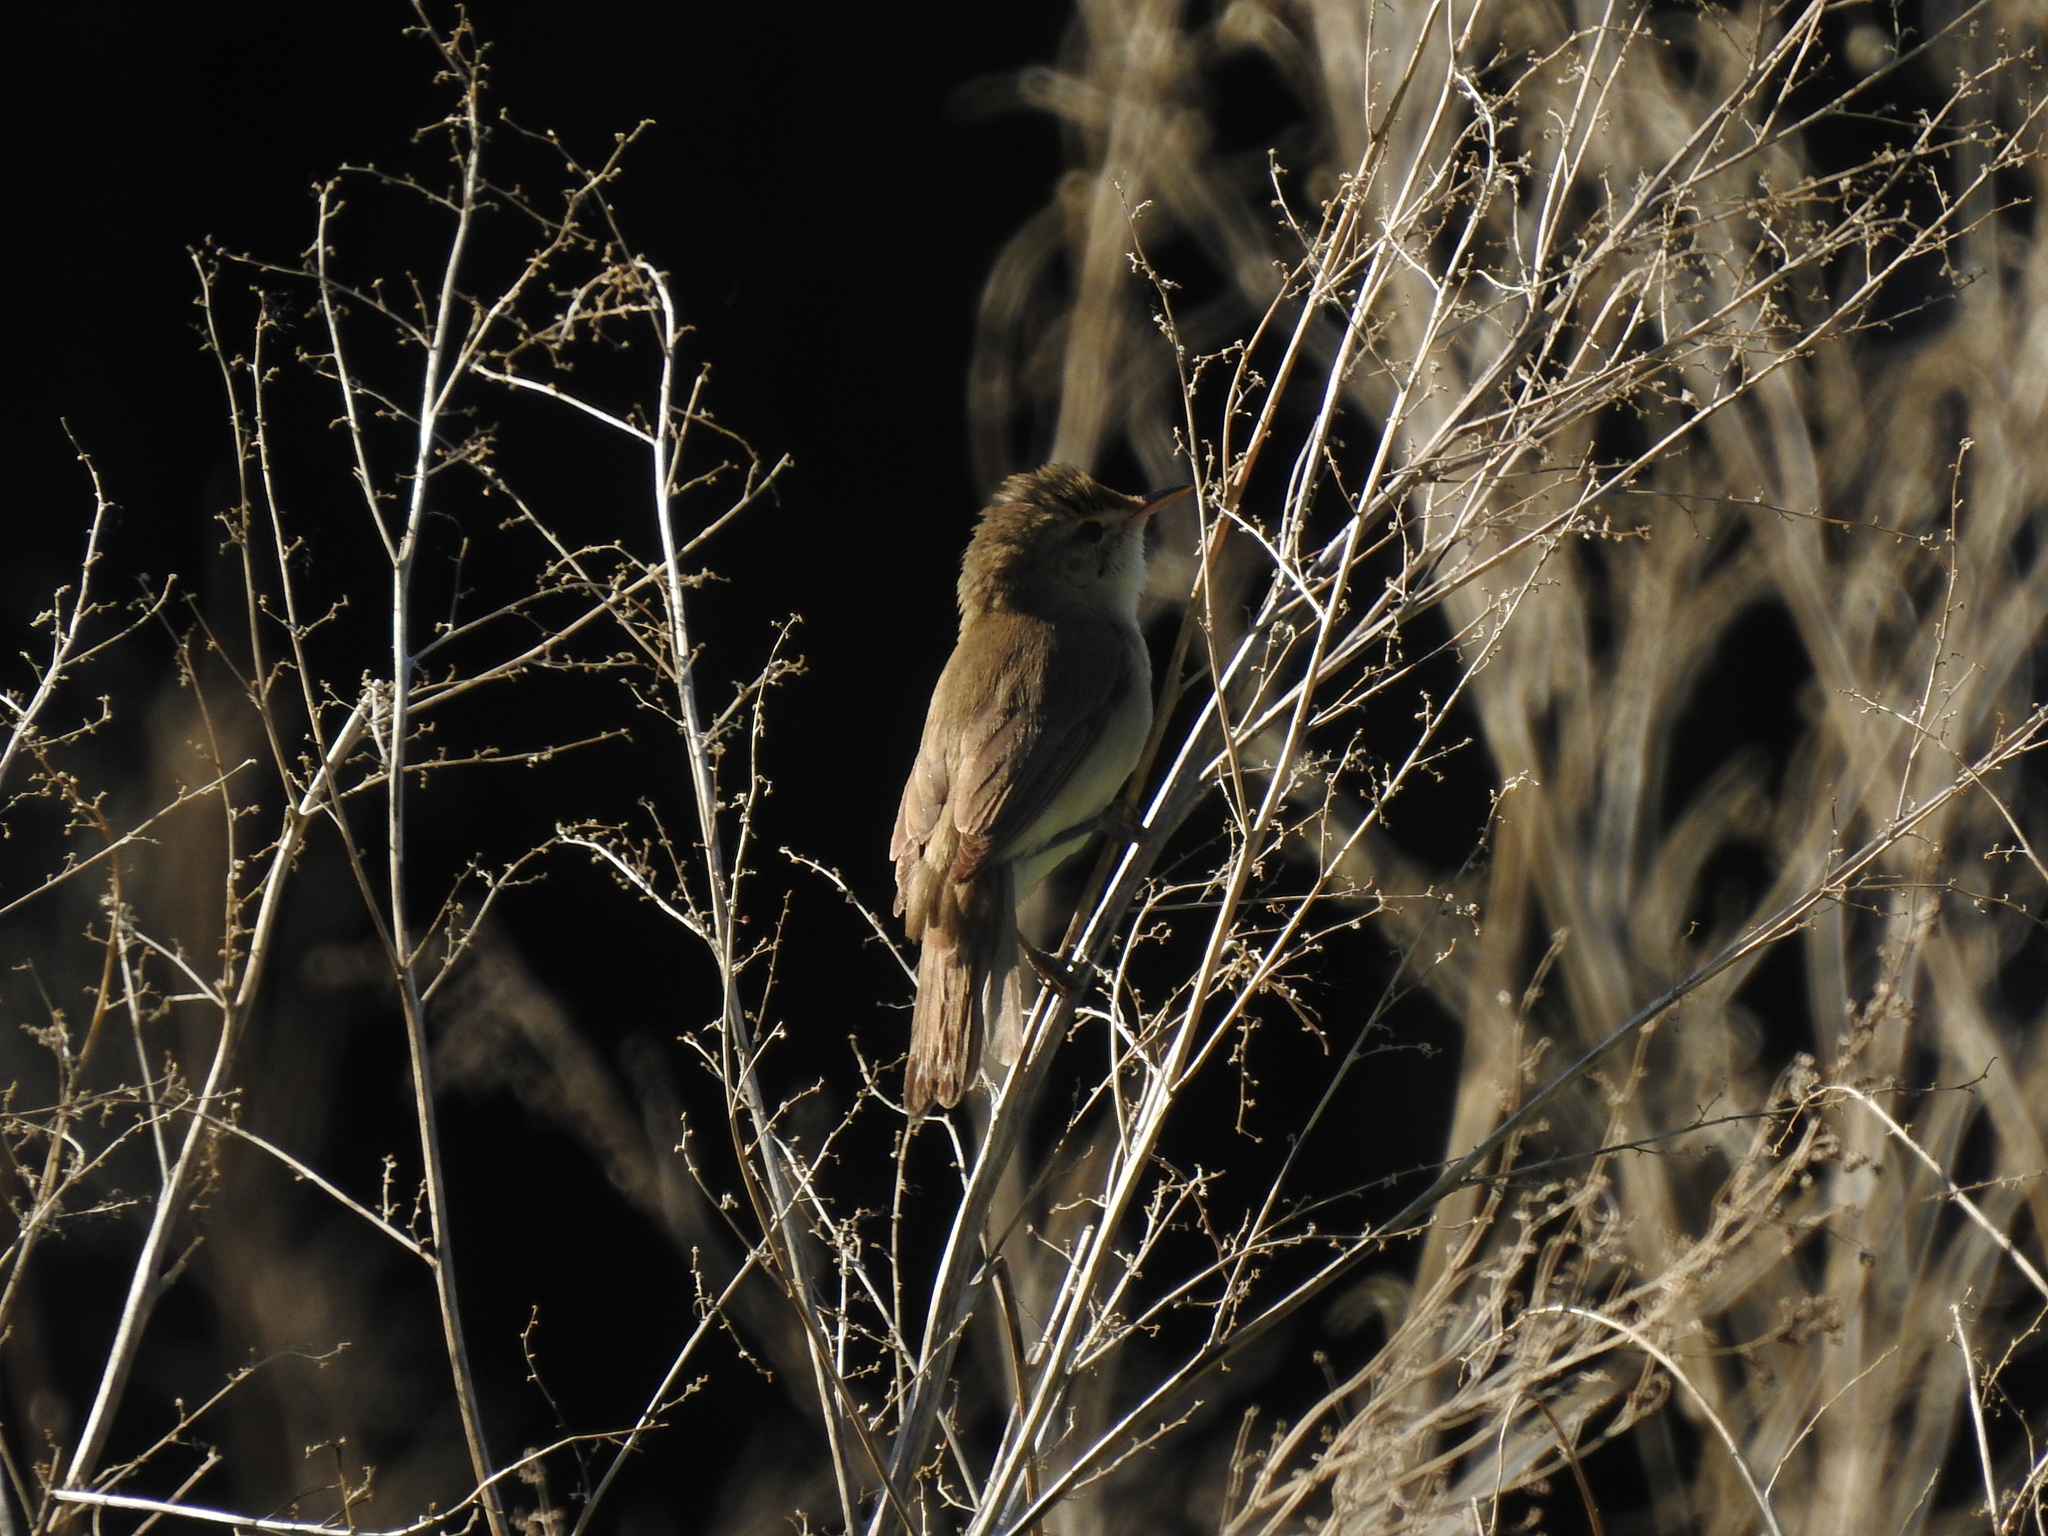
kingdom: Animalia
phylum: Chordata
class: Aves
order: Passeriformes
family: Acrocephalidae
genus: Acrocephalus
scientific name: Acrocephalus dumetorum
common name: Blyth's reed warbler
